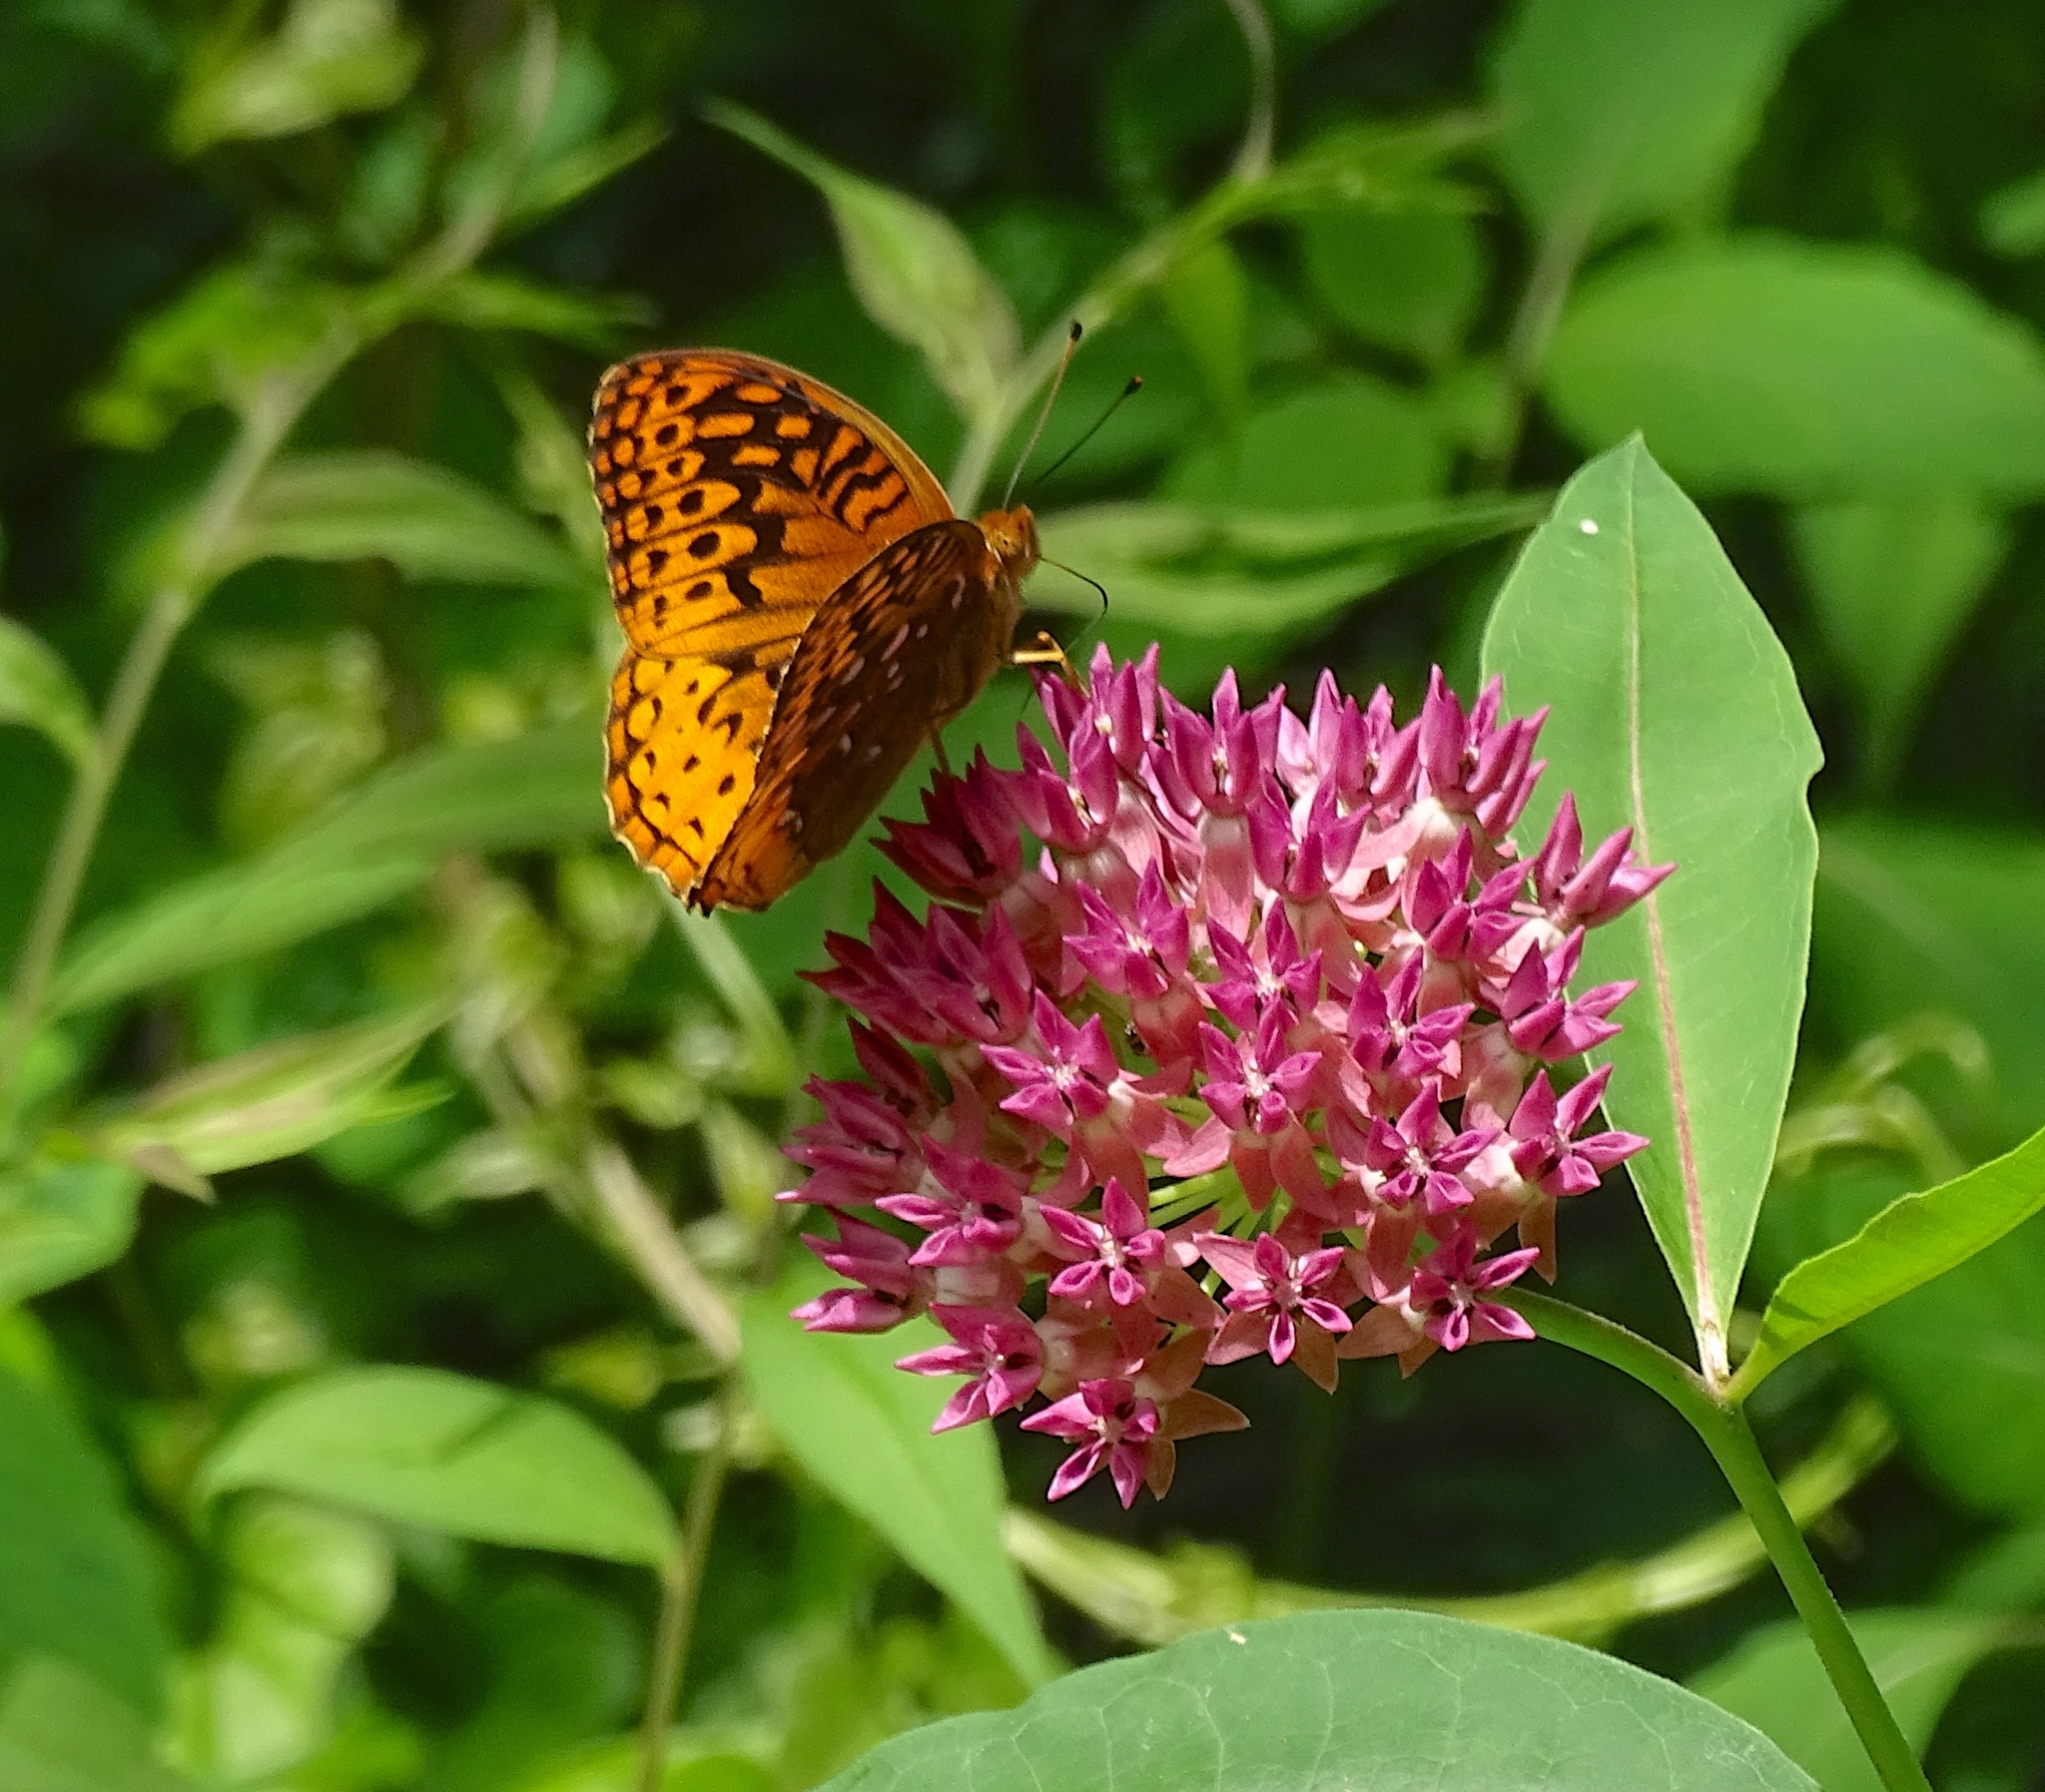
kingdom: Animalia
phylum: Arthropoda
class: Insecta
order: Lepidoptera
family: Nymphalidae
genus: Speyeria
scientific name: Speyeria cybele
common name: Great spangled fritillary
